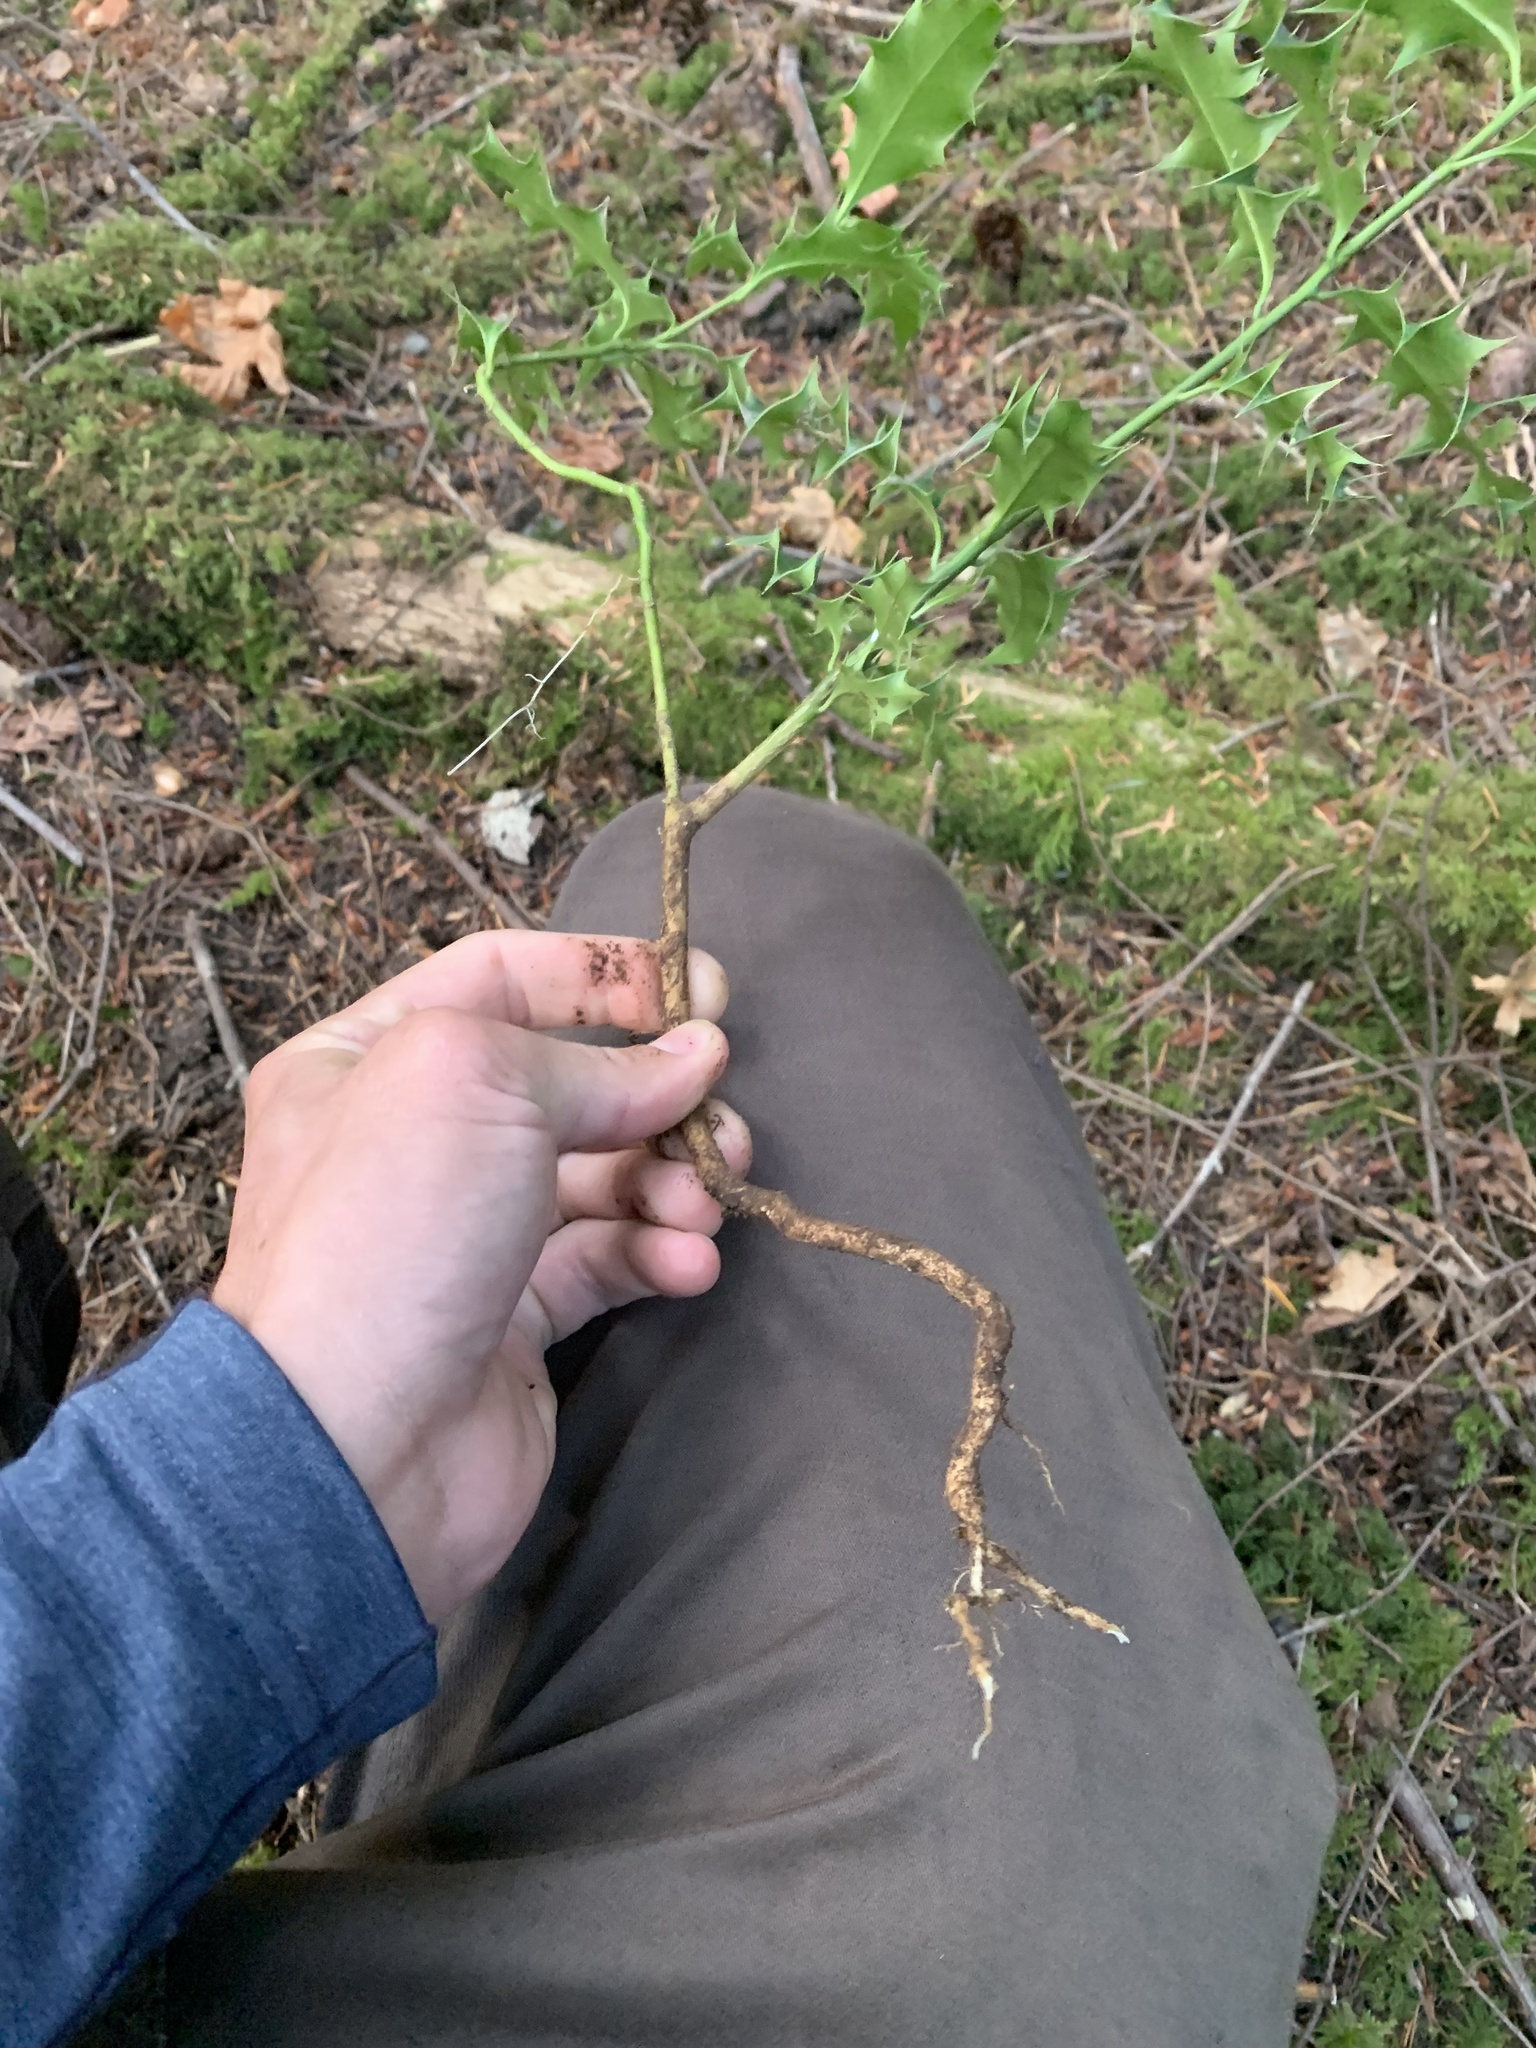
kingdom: Plantae
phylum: Tracheophyta
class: Magnoliopsida
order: Aquifoliales
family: Aquifoliaceae
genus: Ilex
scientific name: Ilex aquifolium
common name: English holly
